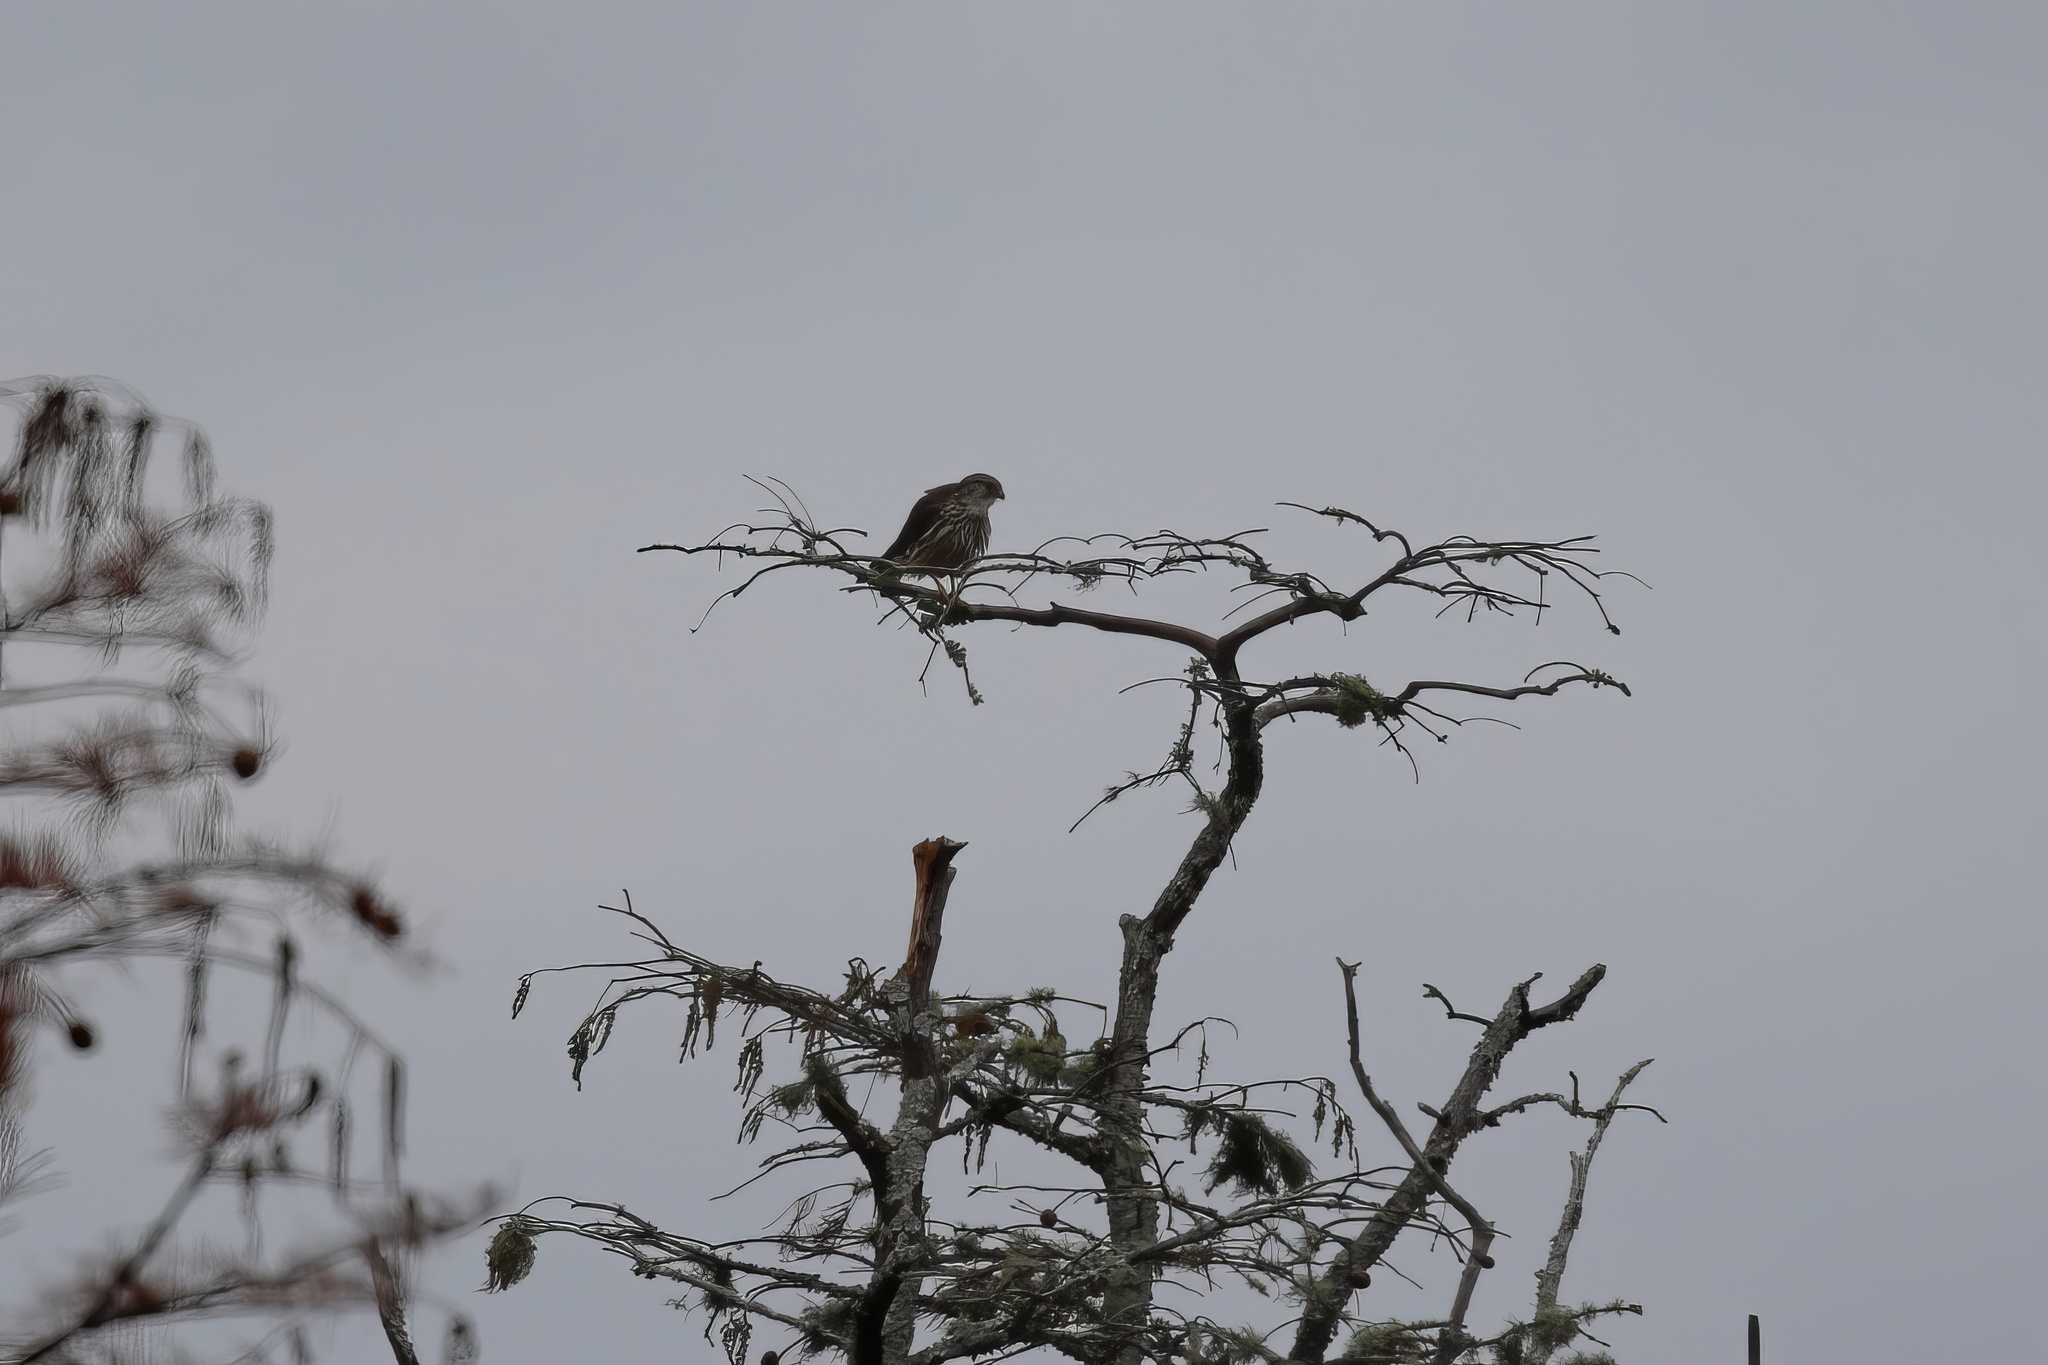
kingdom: Animalia
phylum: Chordata
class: Aves
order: Falconiformes
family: Falconidae
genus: Falco
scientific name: Falco columbarius
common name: Merlin
